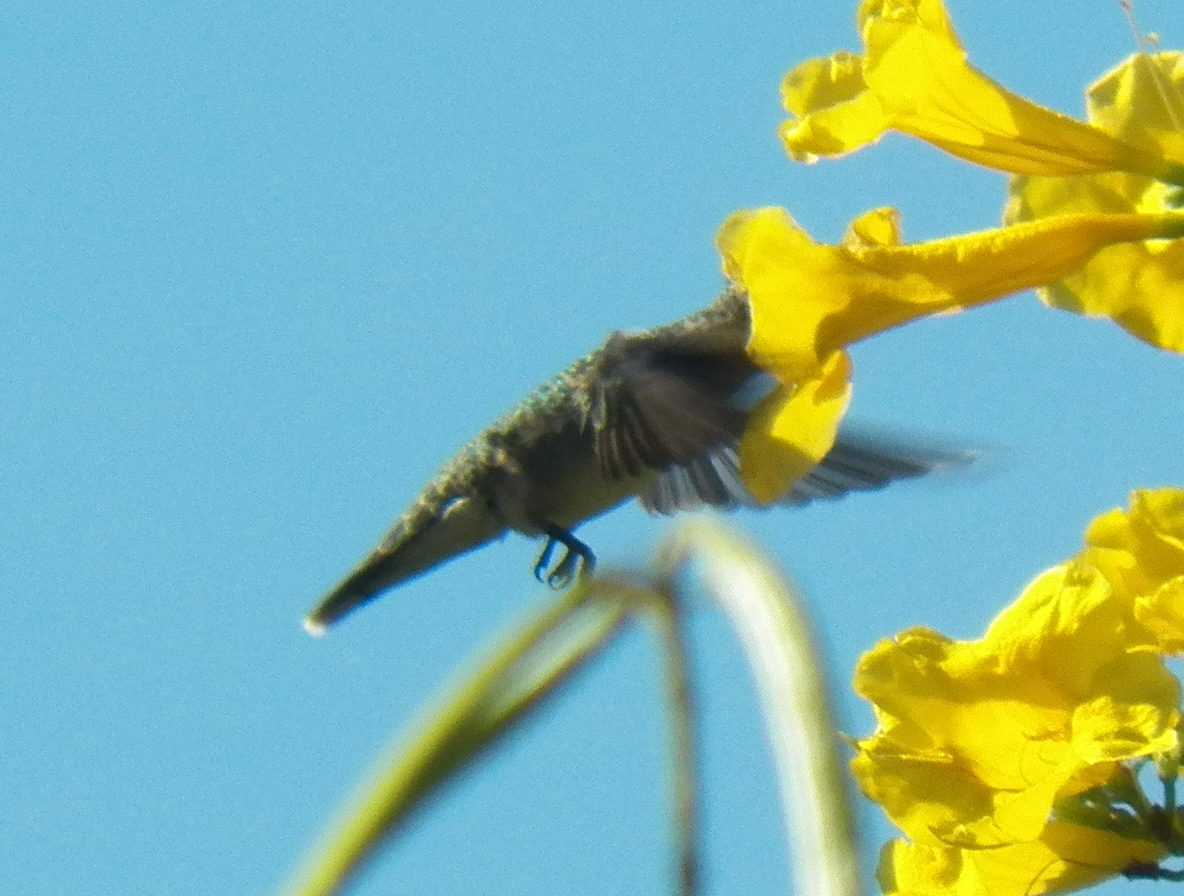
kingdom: Animalia
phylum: Chordata
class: Aves
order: Apodiformes
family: Trochilidae
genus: Archilochus
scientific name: Archilochus colubris
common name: Ruby-throated hummingbird
